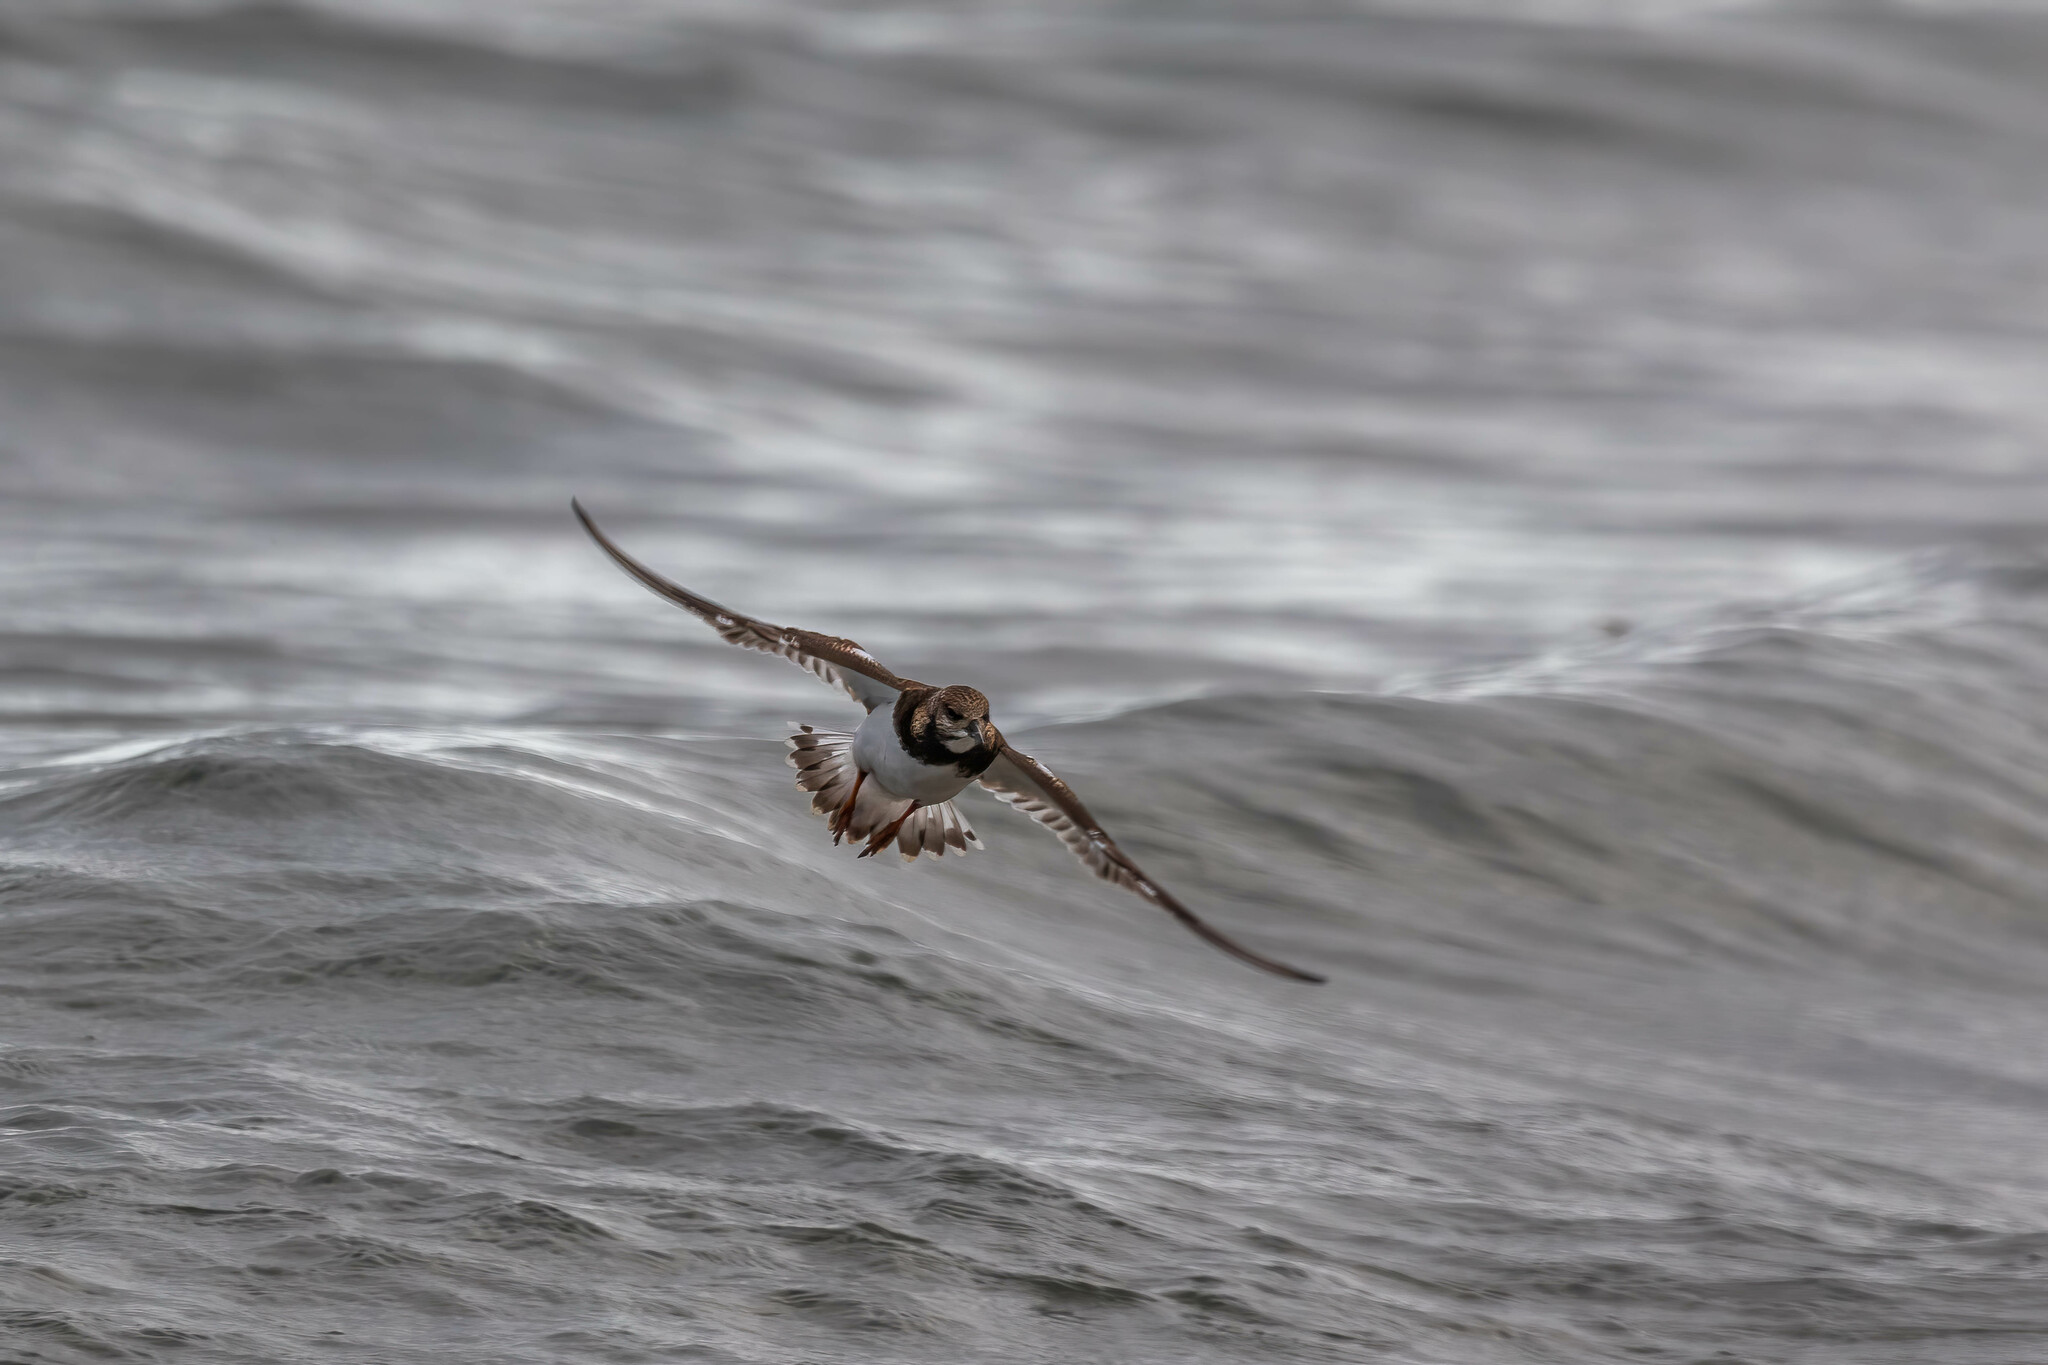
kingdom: Animalia
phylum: Chordata
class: Aves
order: Charadriiformes
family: Scolopacidae
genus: Arenaria
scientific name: Arenaria interpres
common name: Ruddy turnstone
